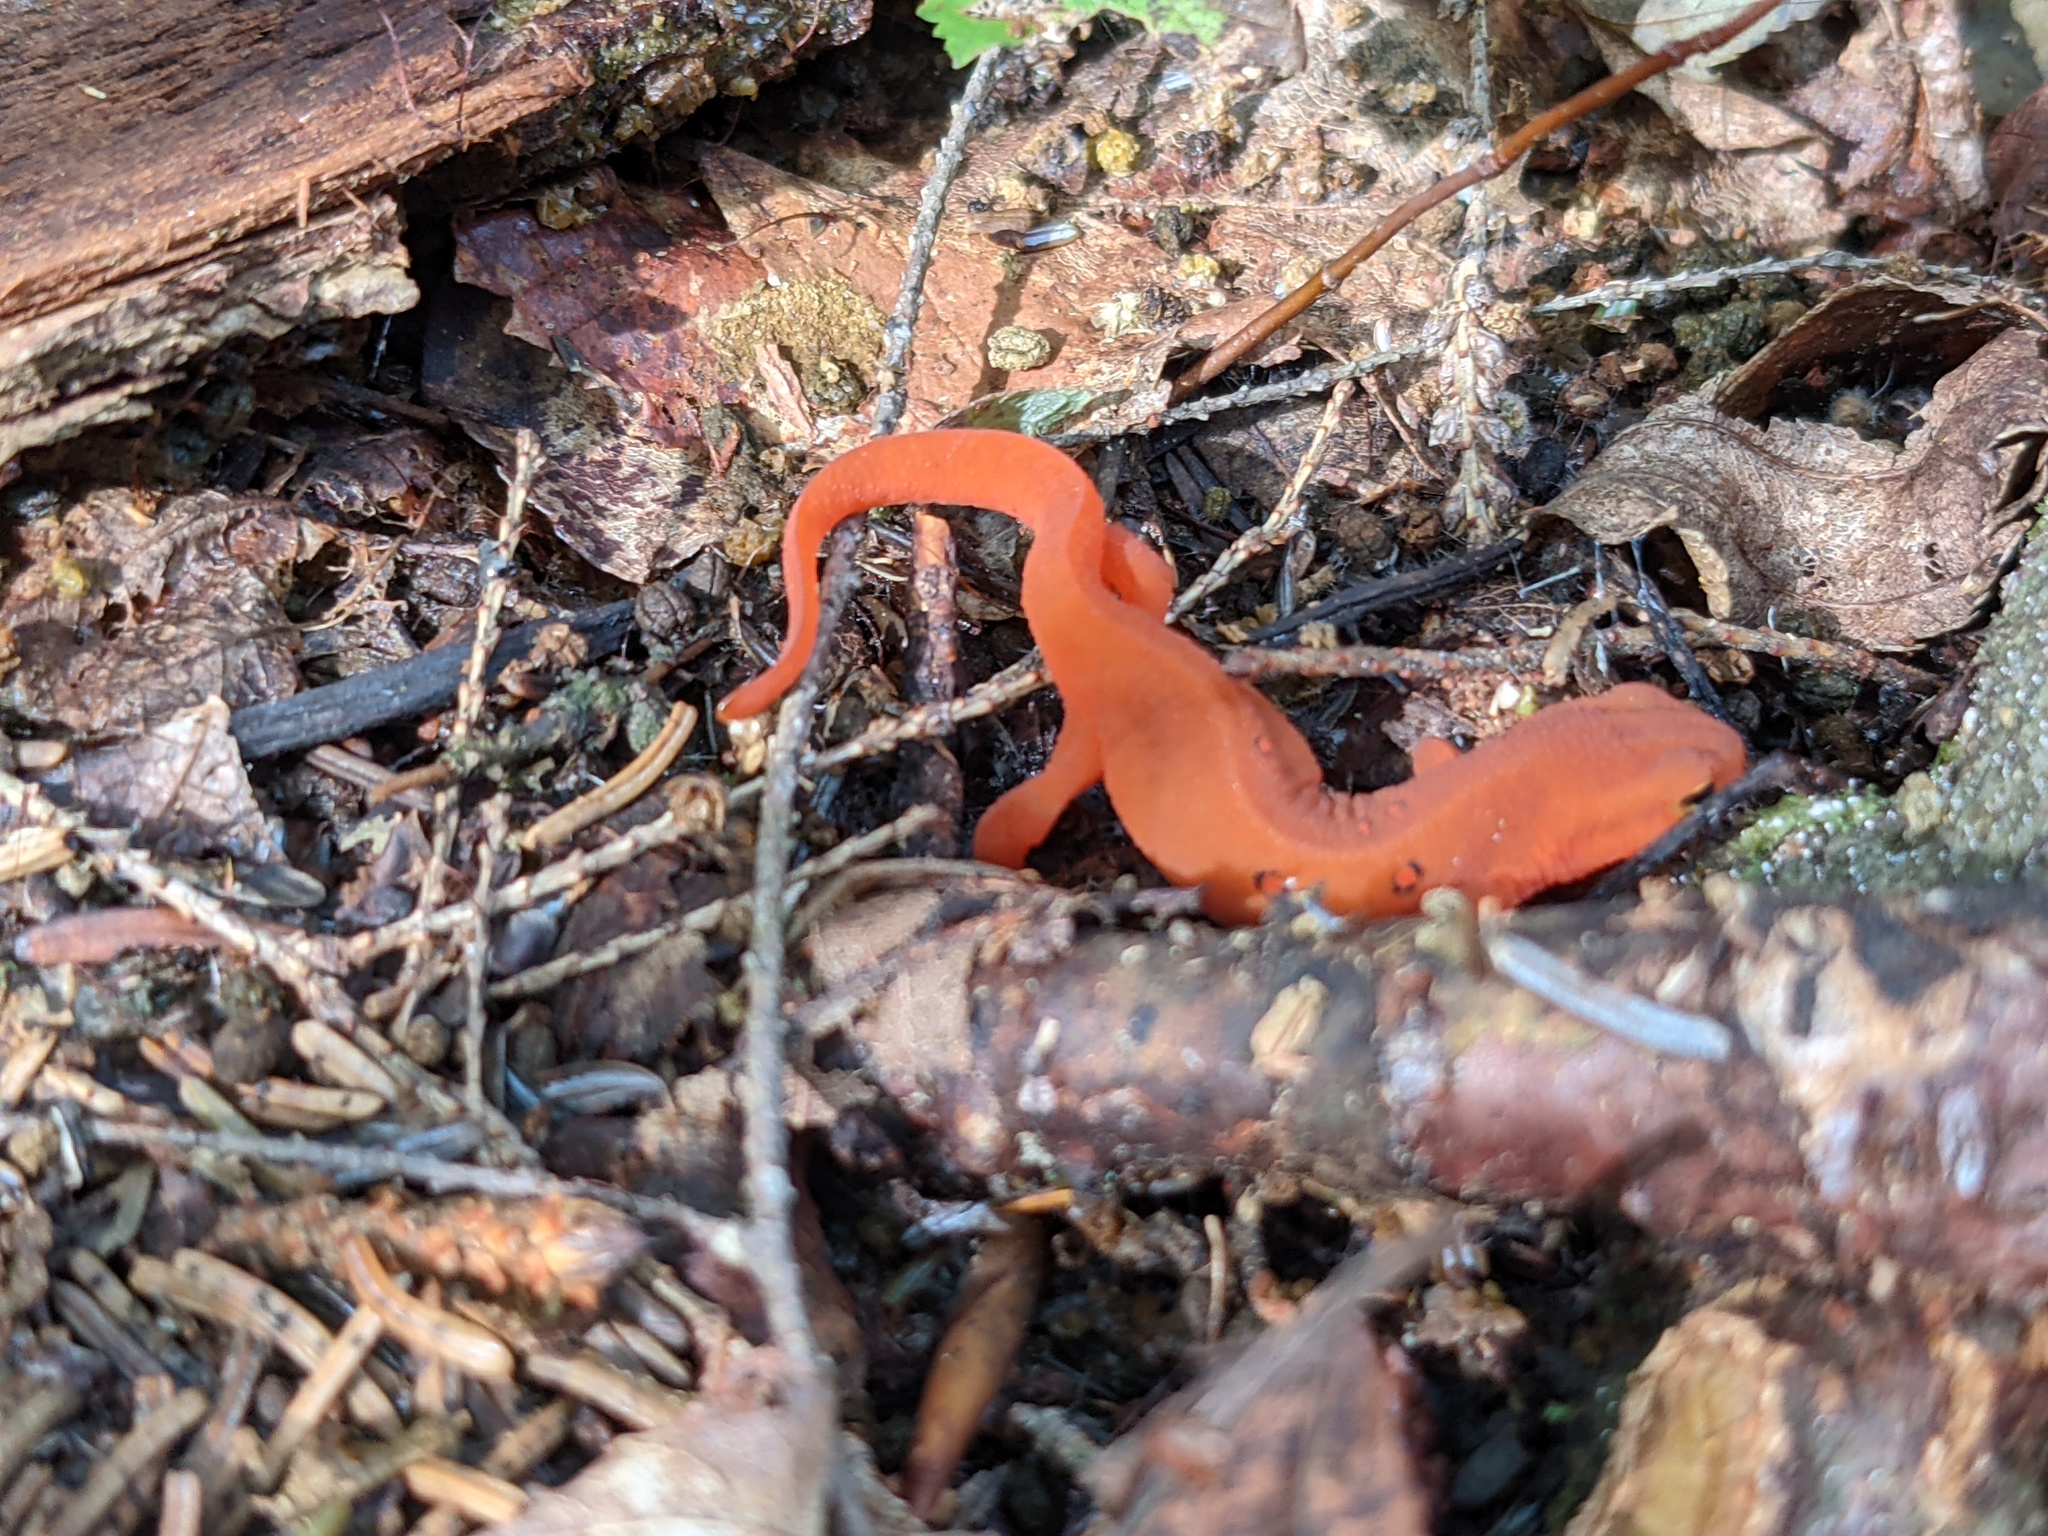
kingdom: Animalia
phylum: Chordata
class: Amphibia
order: Caudata
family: Salamandridae
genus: Notophthalmus
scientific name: Notophthalmus viridescens
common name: Eastern newt
